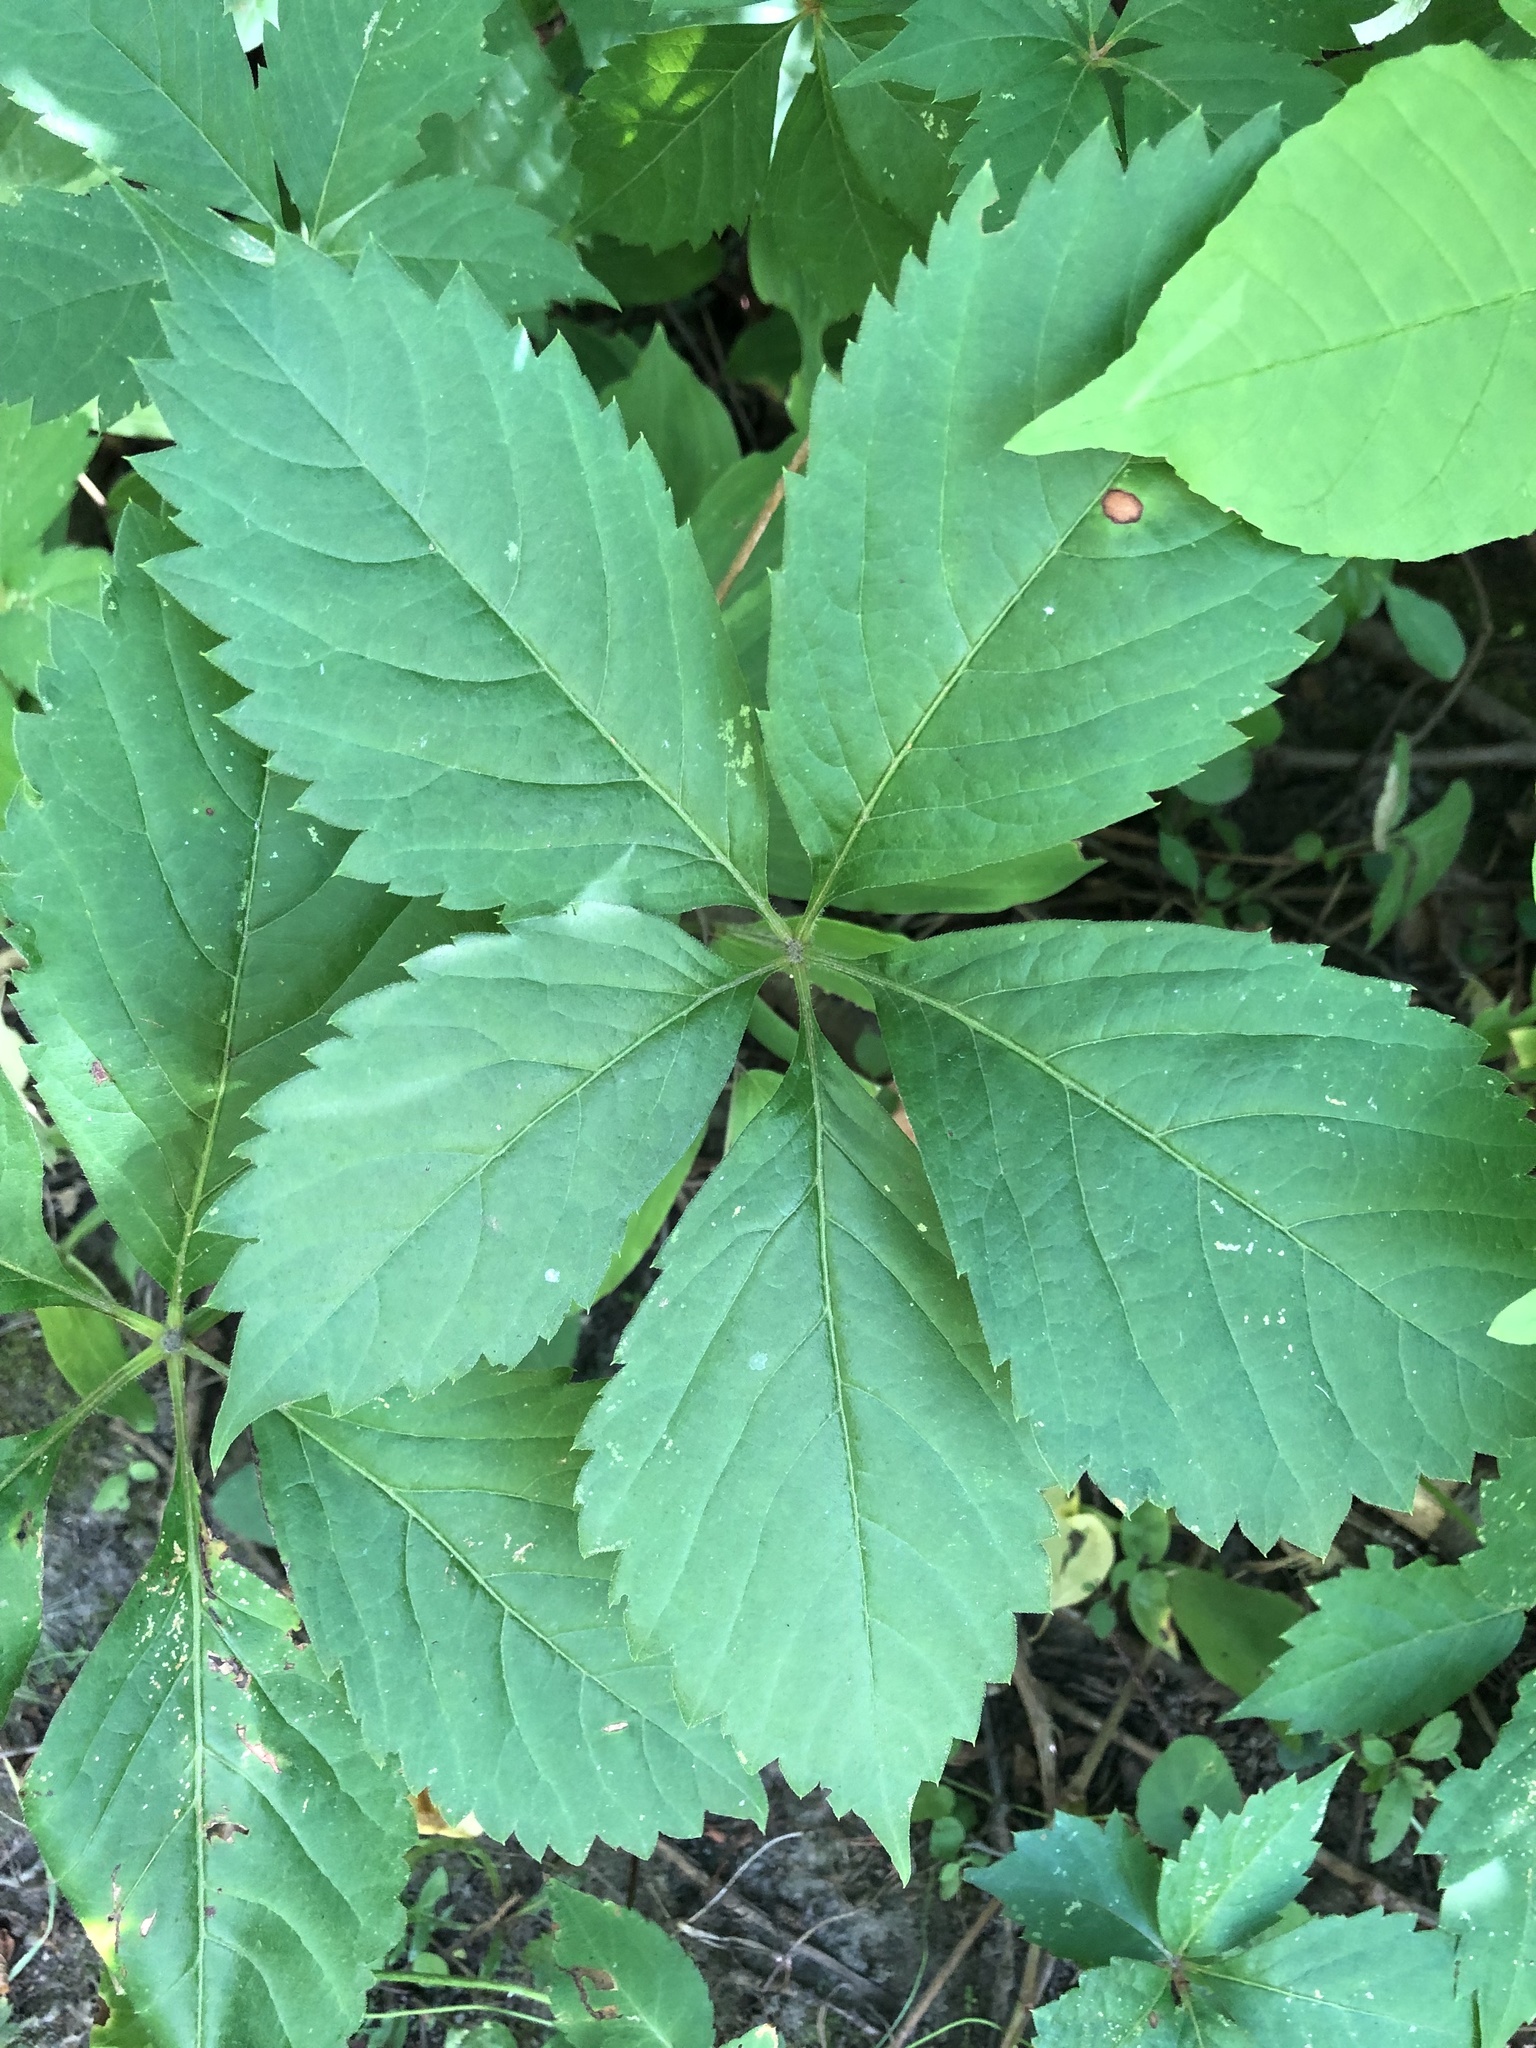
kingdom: Plantae
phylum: Tracheophyta
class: Magnoliopsida
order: Vitales
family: Vitaceae
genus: Parthenocissus
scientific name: Parthenocissus quinquefolia
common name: Virginia-creeper
